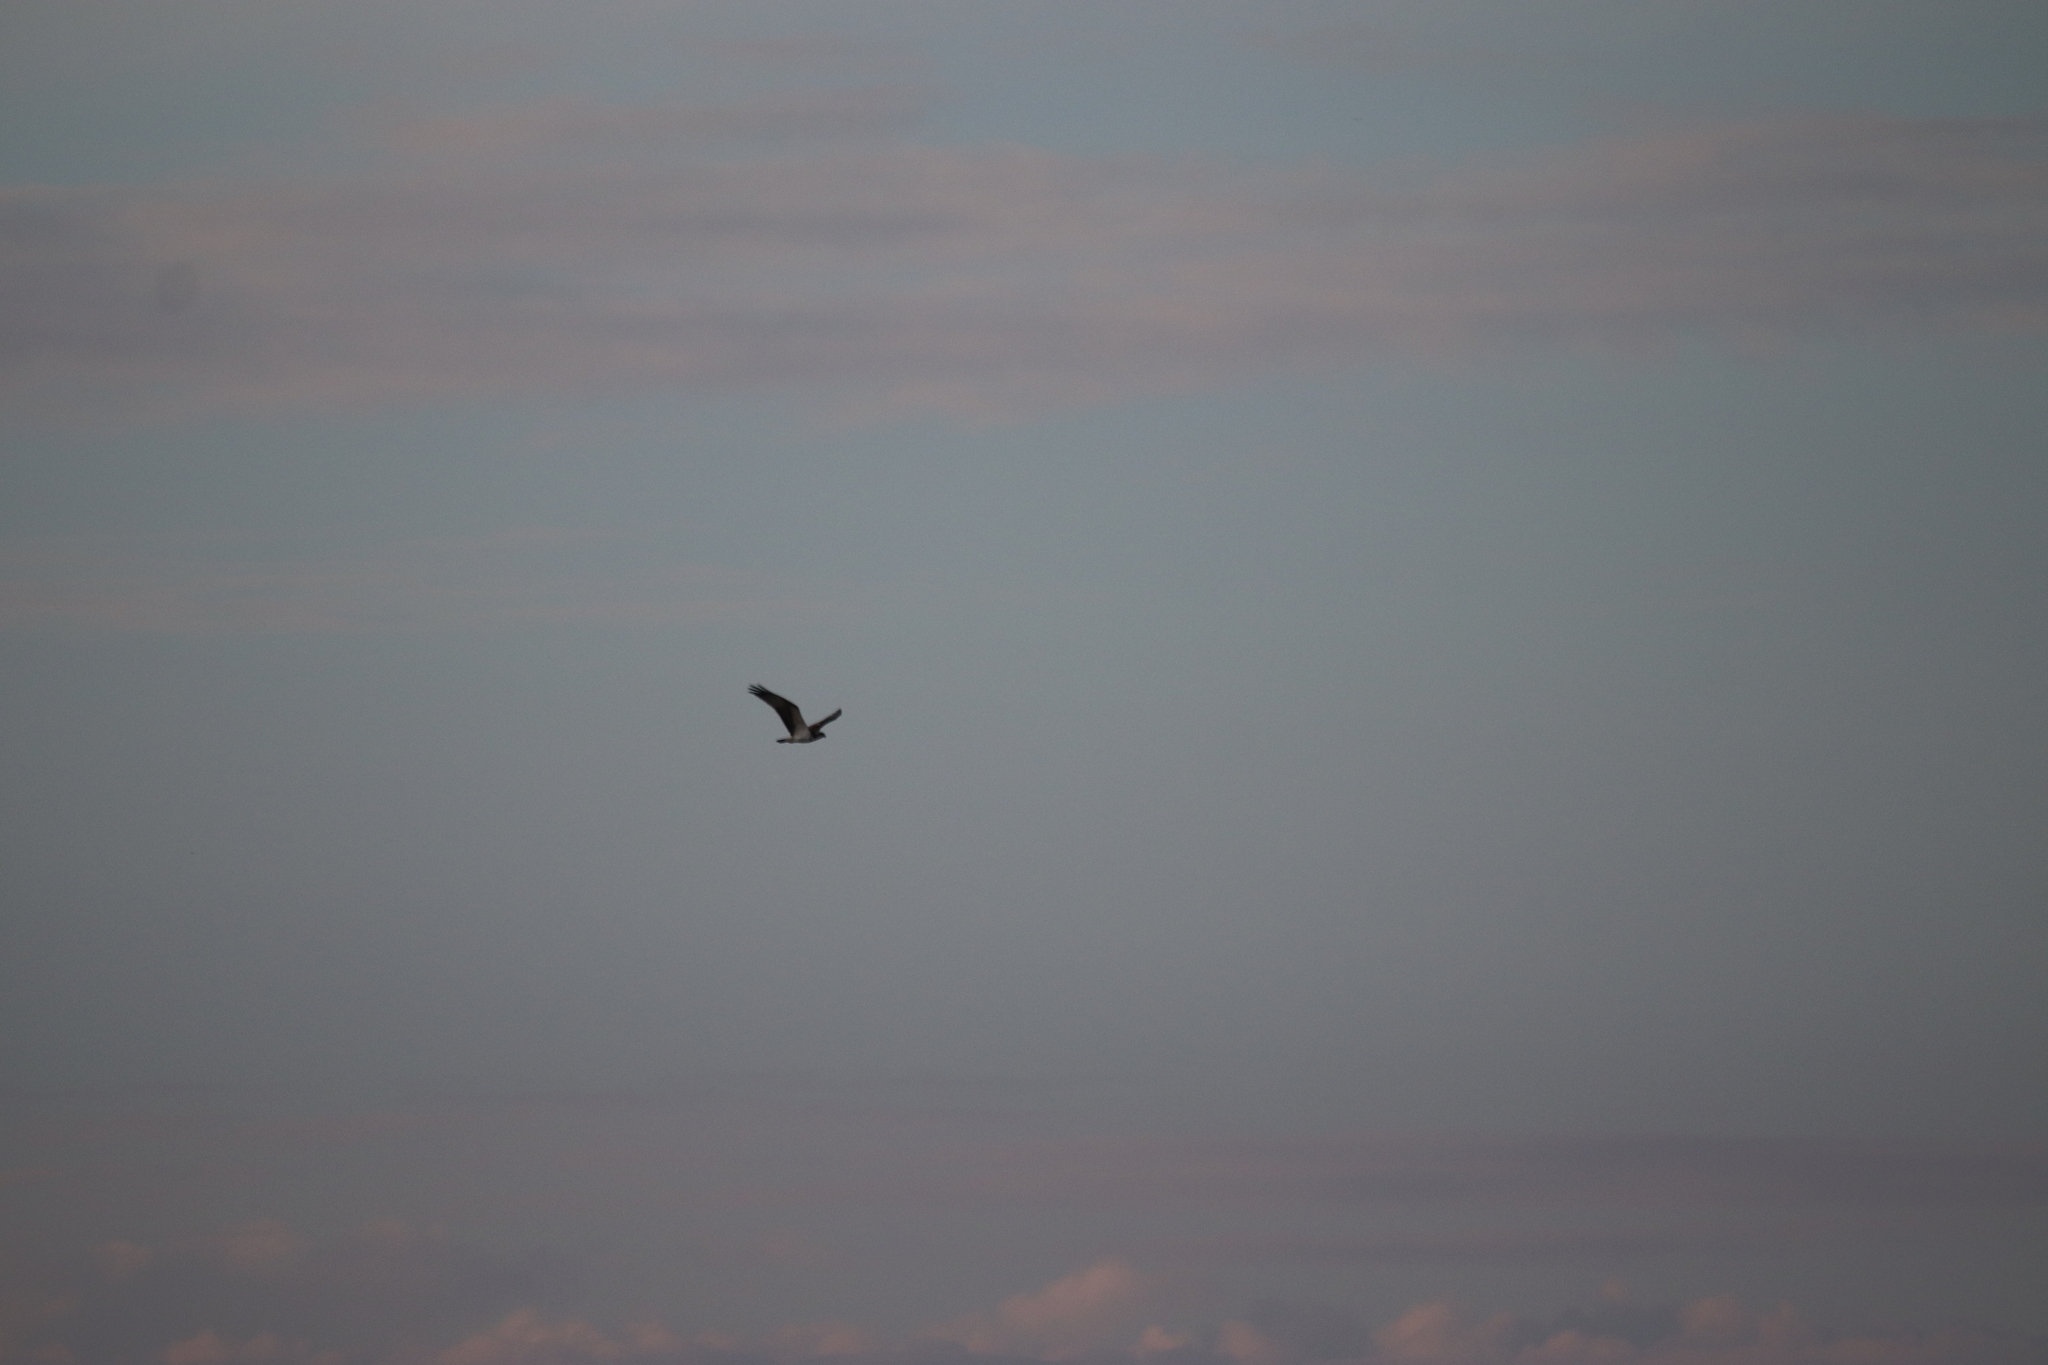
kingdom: Animalia
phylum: Chordata
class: Aves
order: Accipitriformes
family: Pandionidae
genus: Pandion
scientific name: Pandion haliaetus
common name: Osprey
